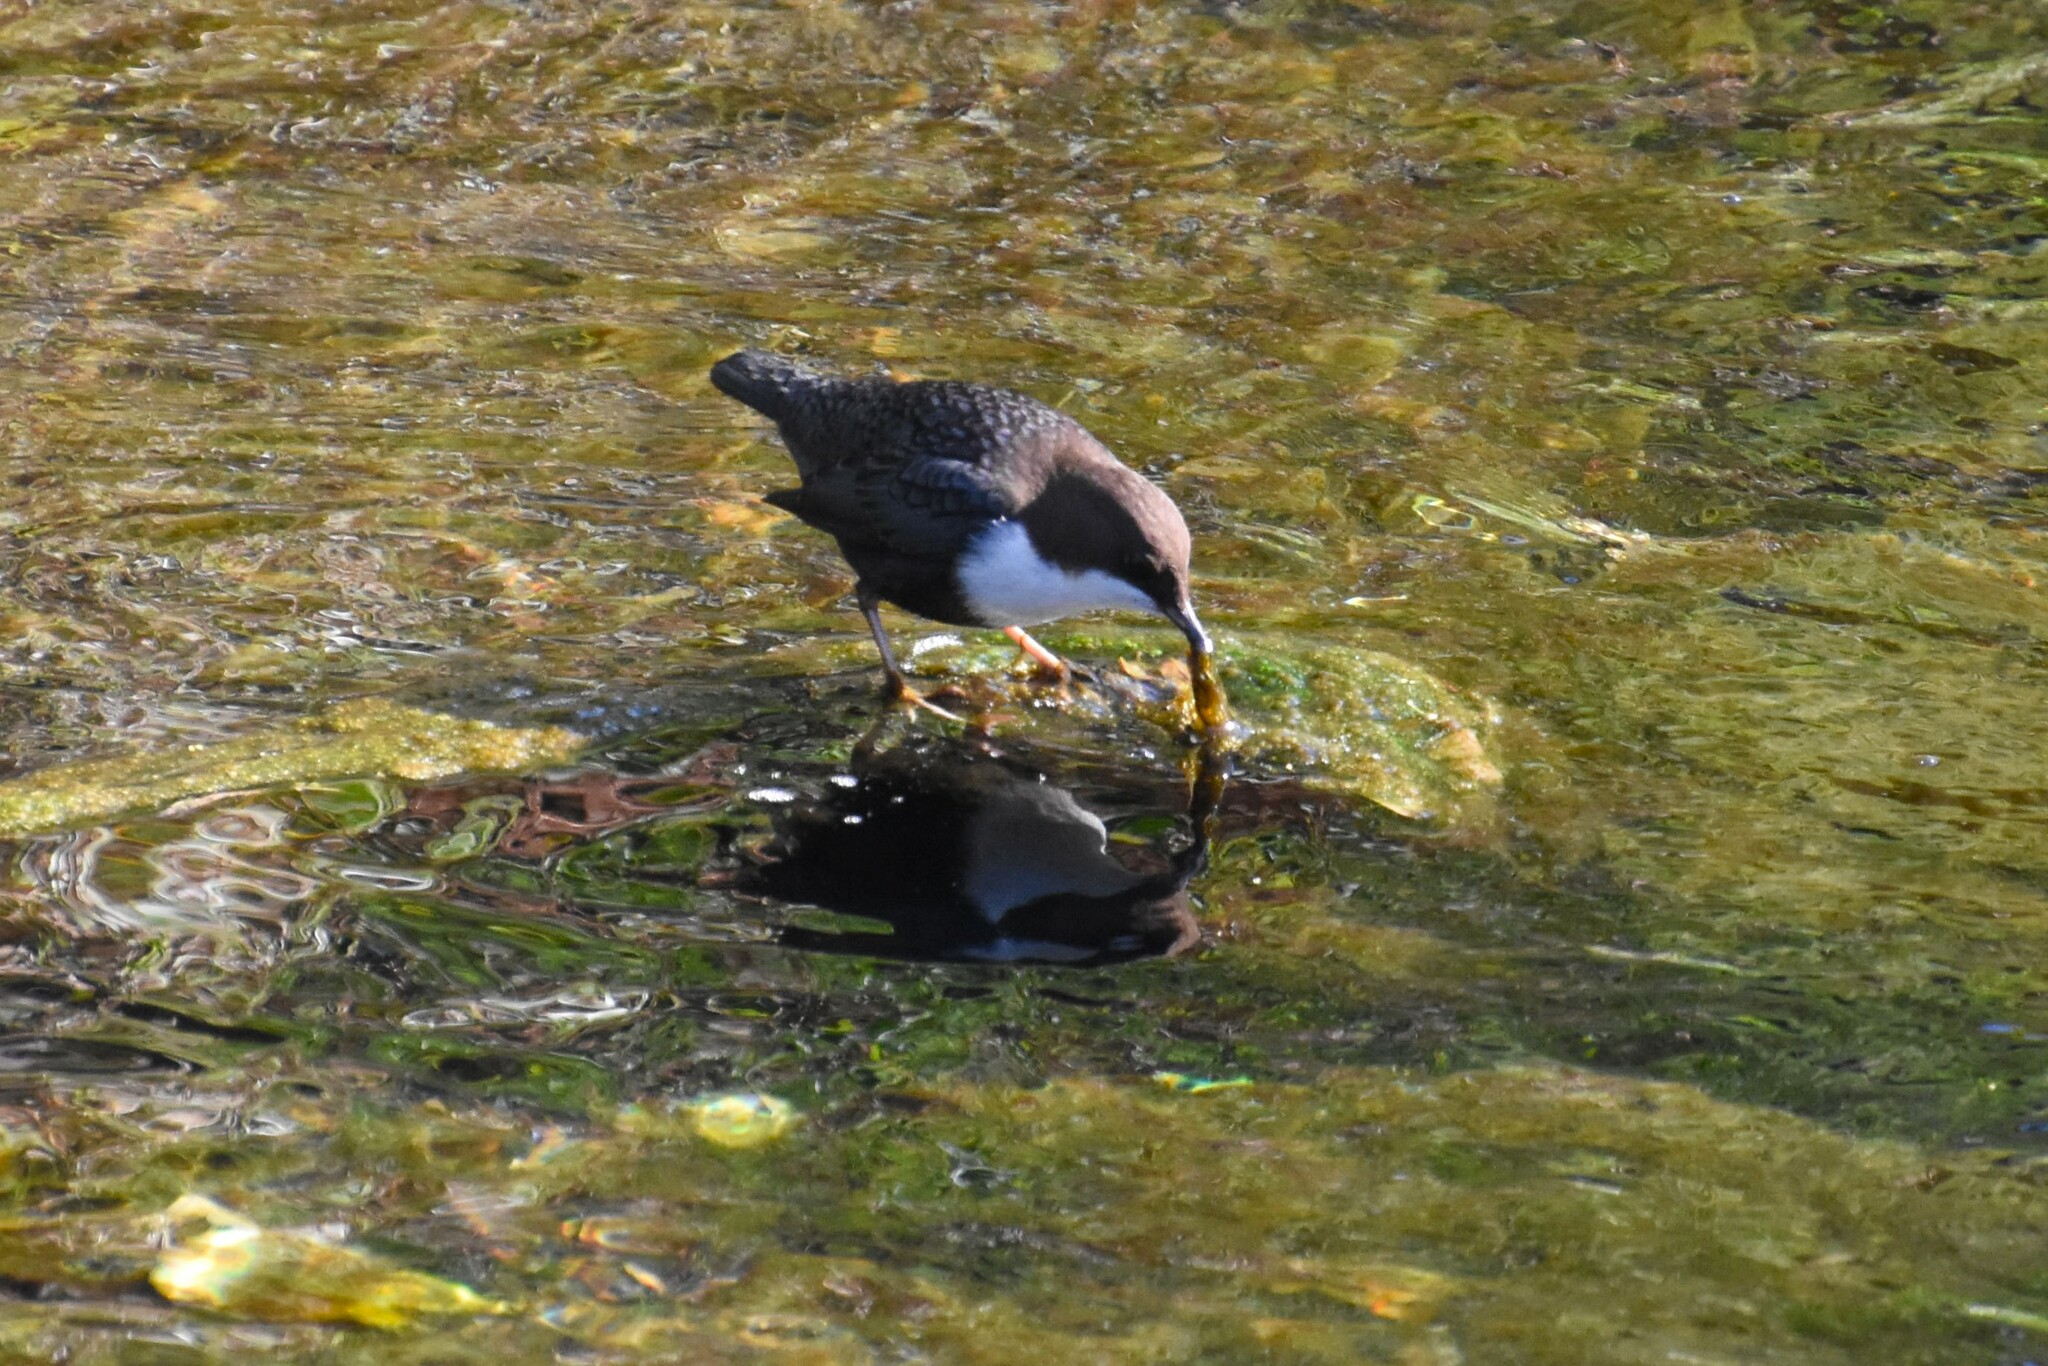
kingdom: Animalia
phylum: Chordata
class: Aves
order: Passeriformes
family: Cinclidae
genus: Cinclus
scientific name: Cinclus cinclus
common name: White-throated dipper
